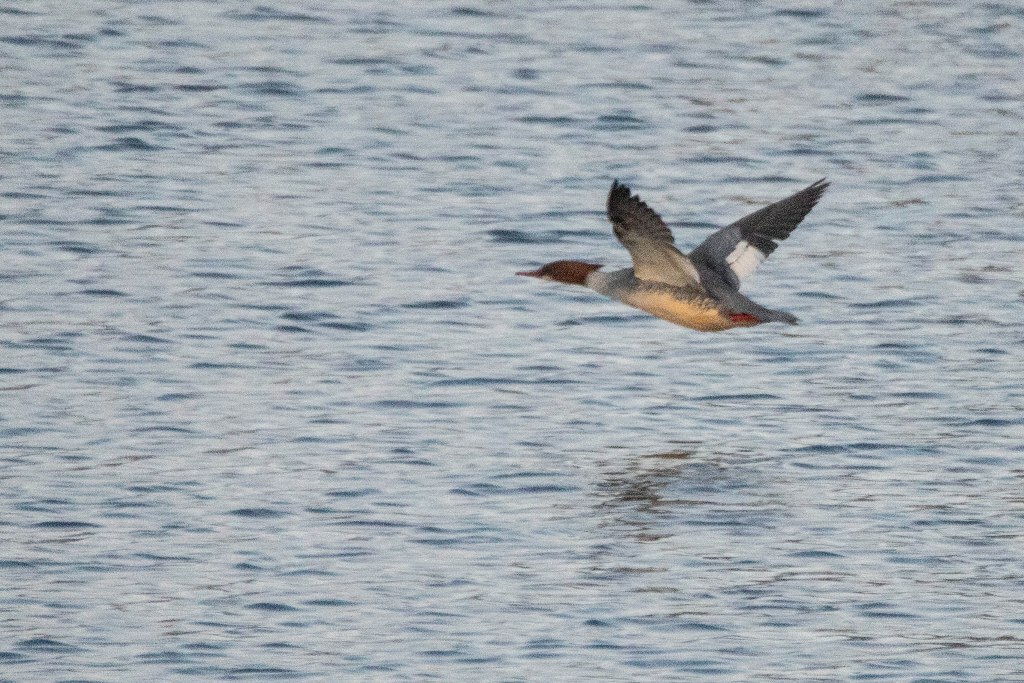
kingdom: Animalia
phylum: Chordata
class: Aves
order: Anseriformes
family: Anatidae
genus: Mergus
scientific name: Mergus merganser
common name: Common merganser
